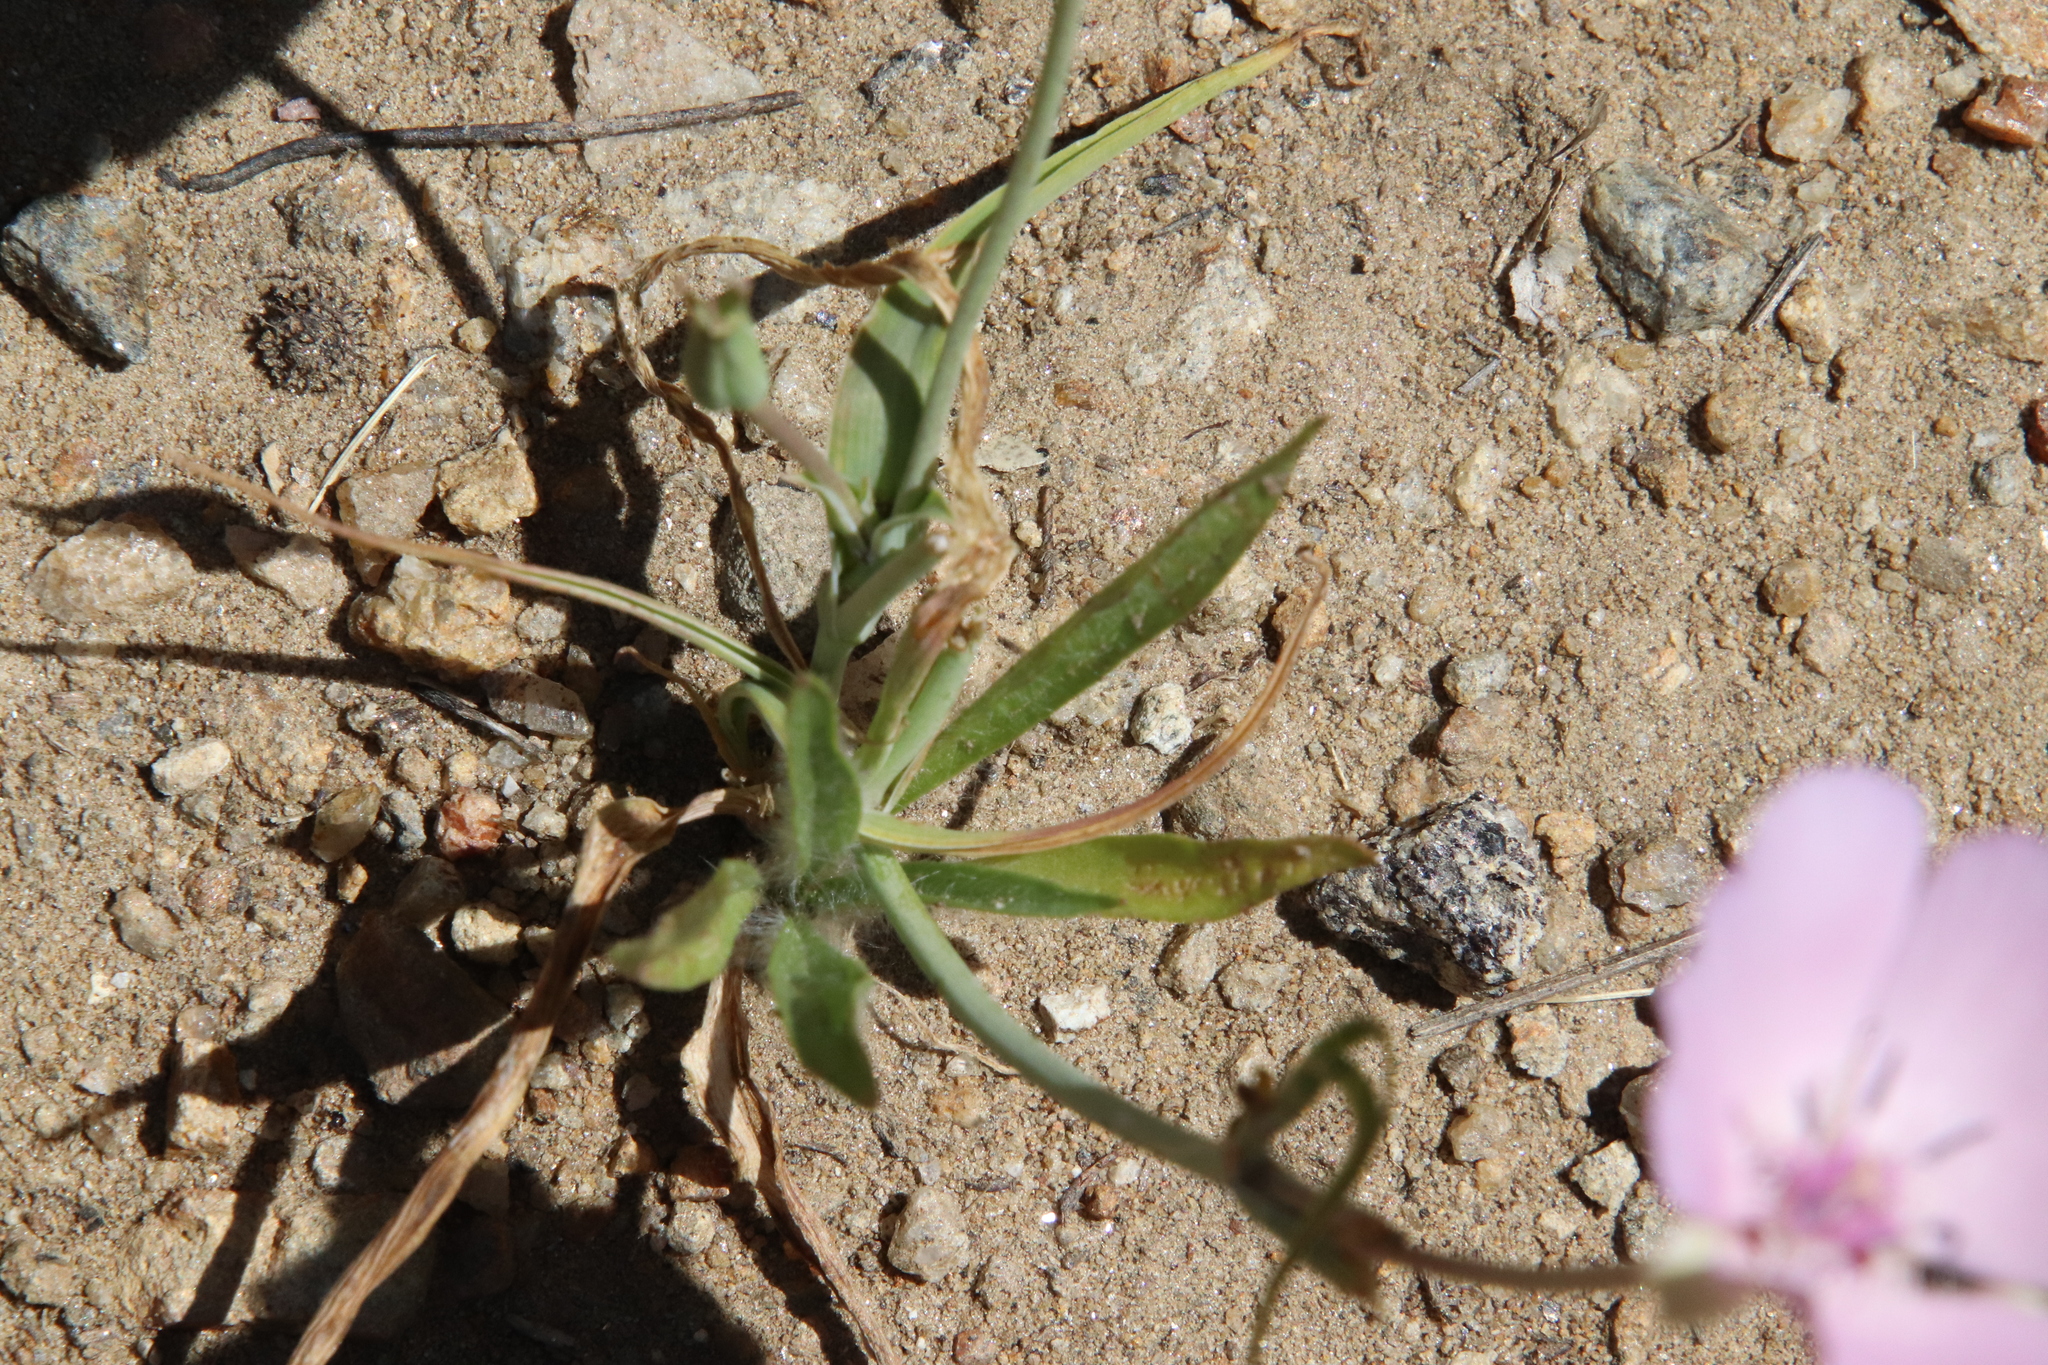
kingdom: Plantae
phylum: Tracheophyta
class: Liliopsida
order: Liliales
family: Liliaceae
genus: Calochortus
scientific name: Calochortus splendens
